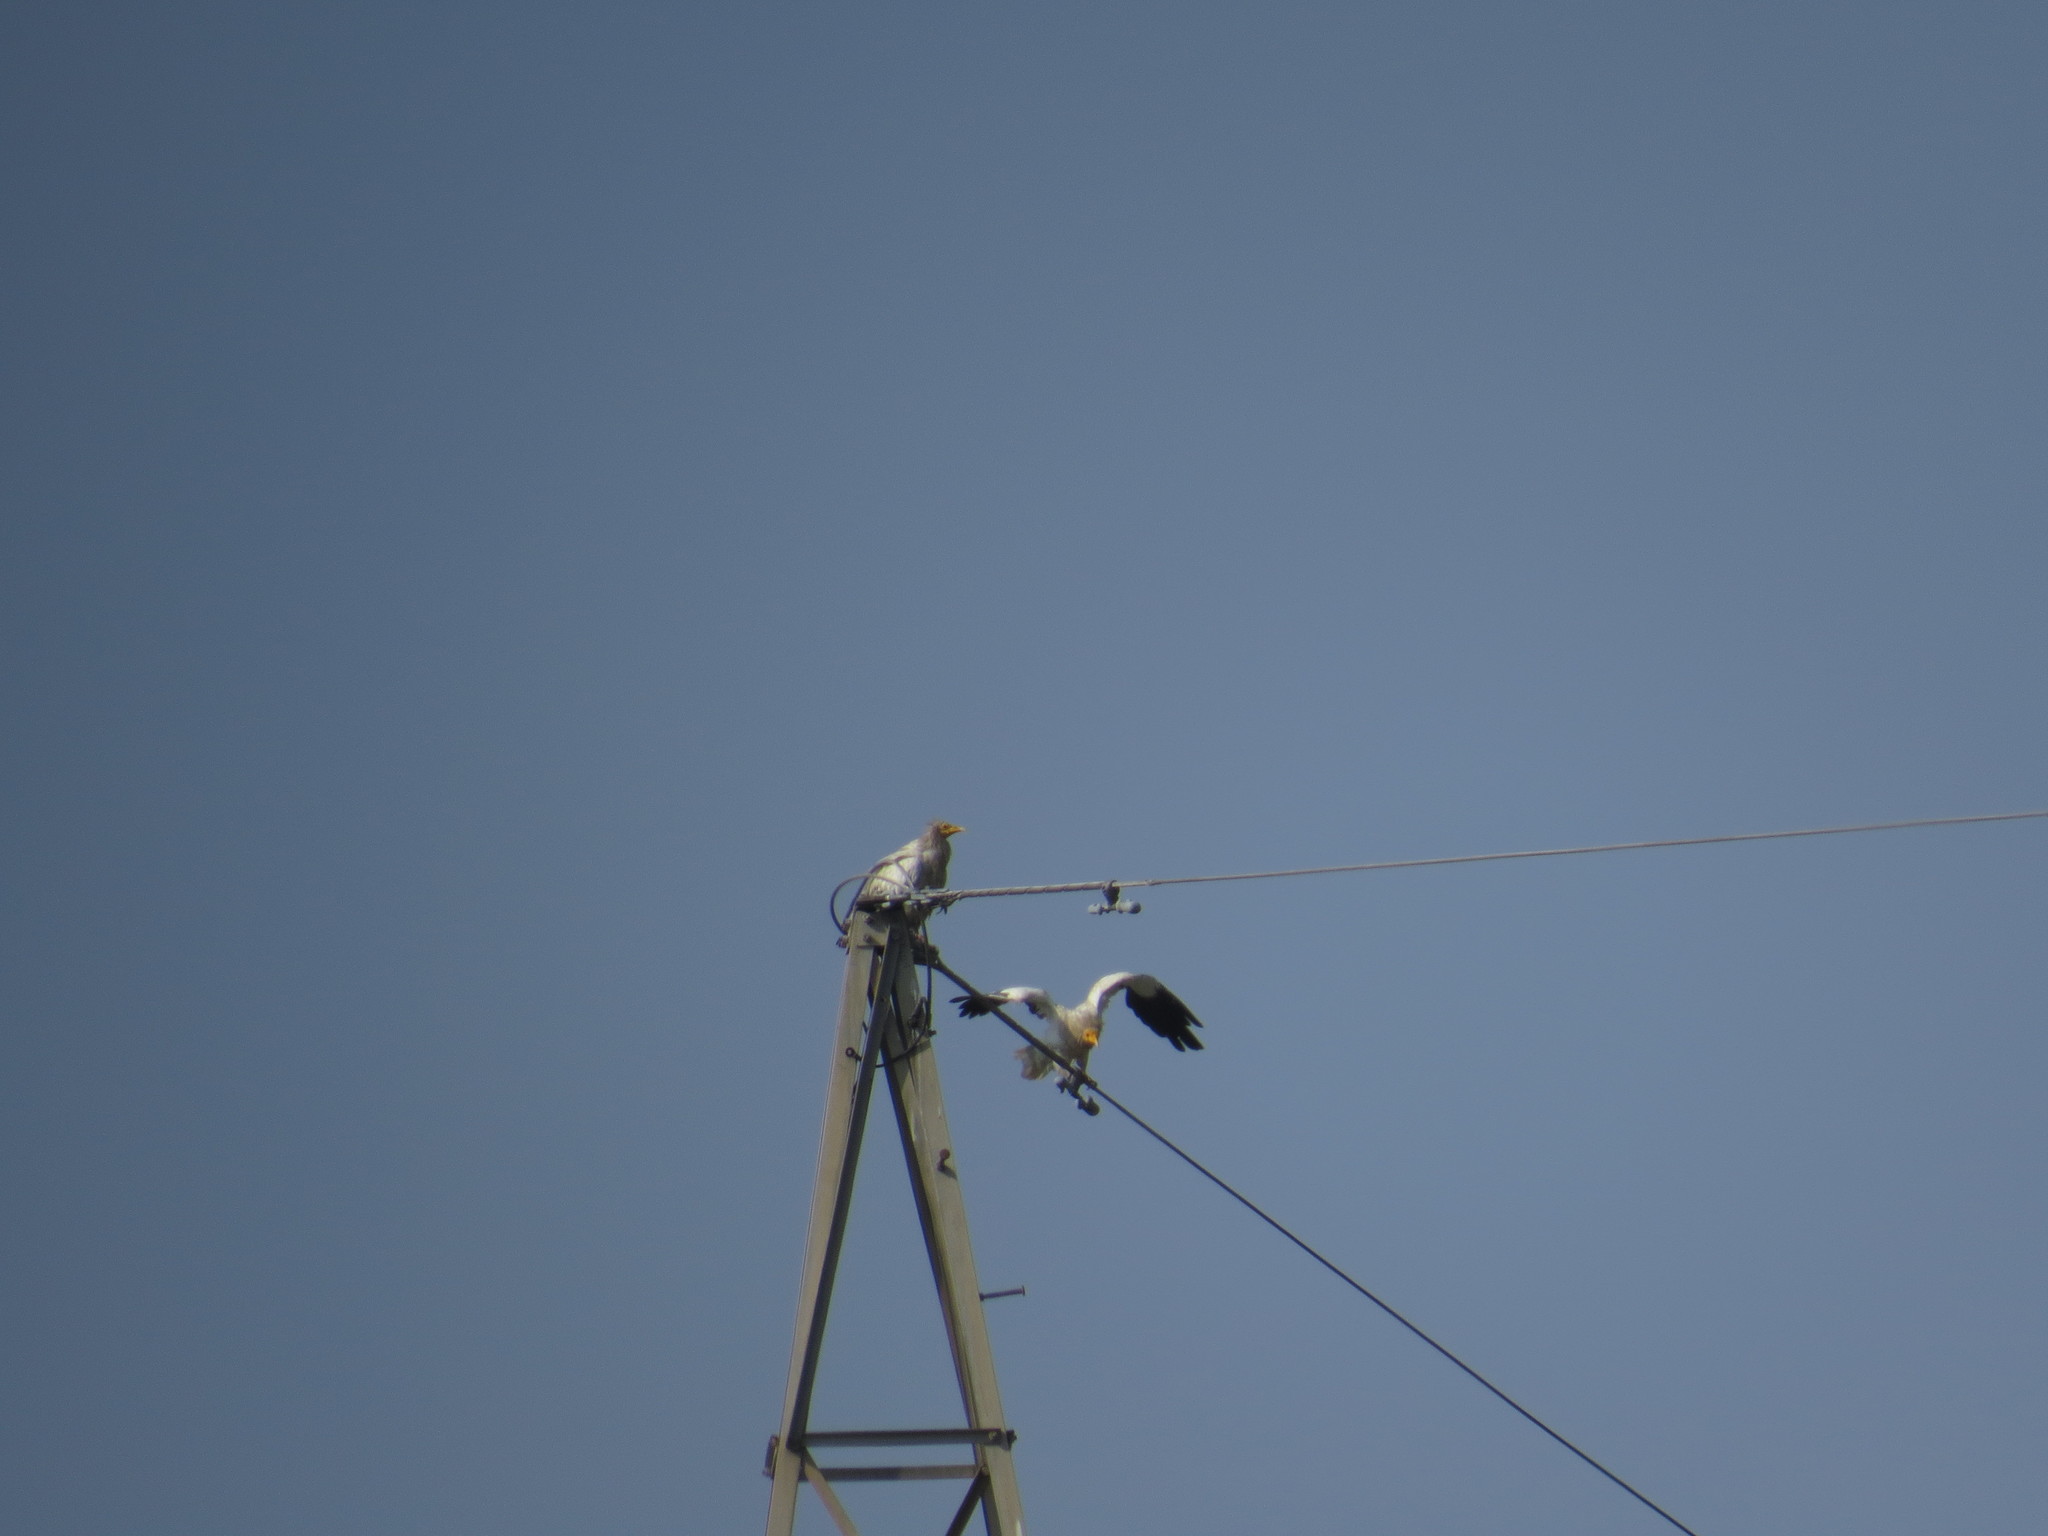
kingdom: Animalia
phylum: Chordata
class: Aves
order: Accipitriformes
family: Accipitridae
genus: Neophron
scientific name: Neophron percnopterus
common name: Egyptian vulture
